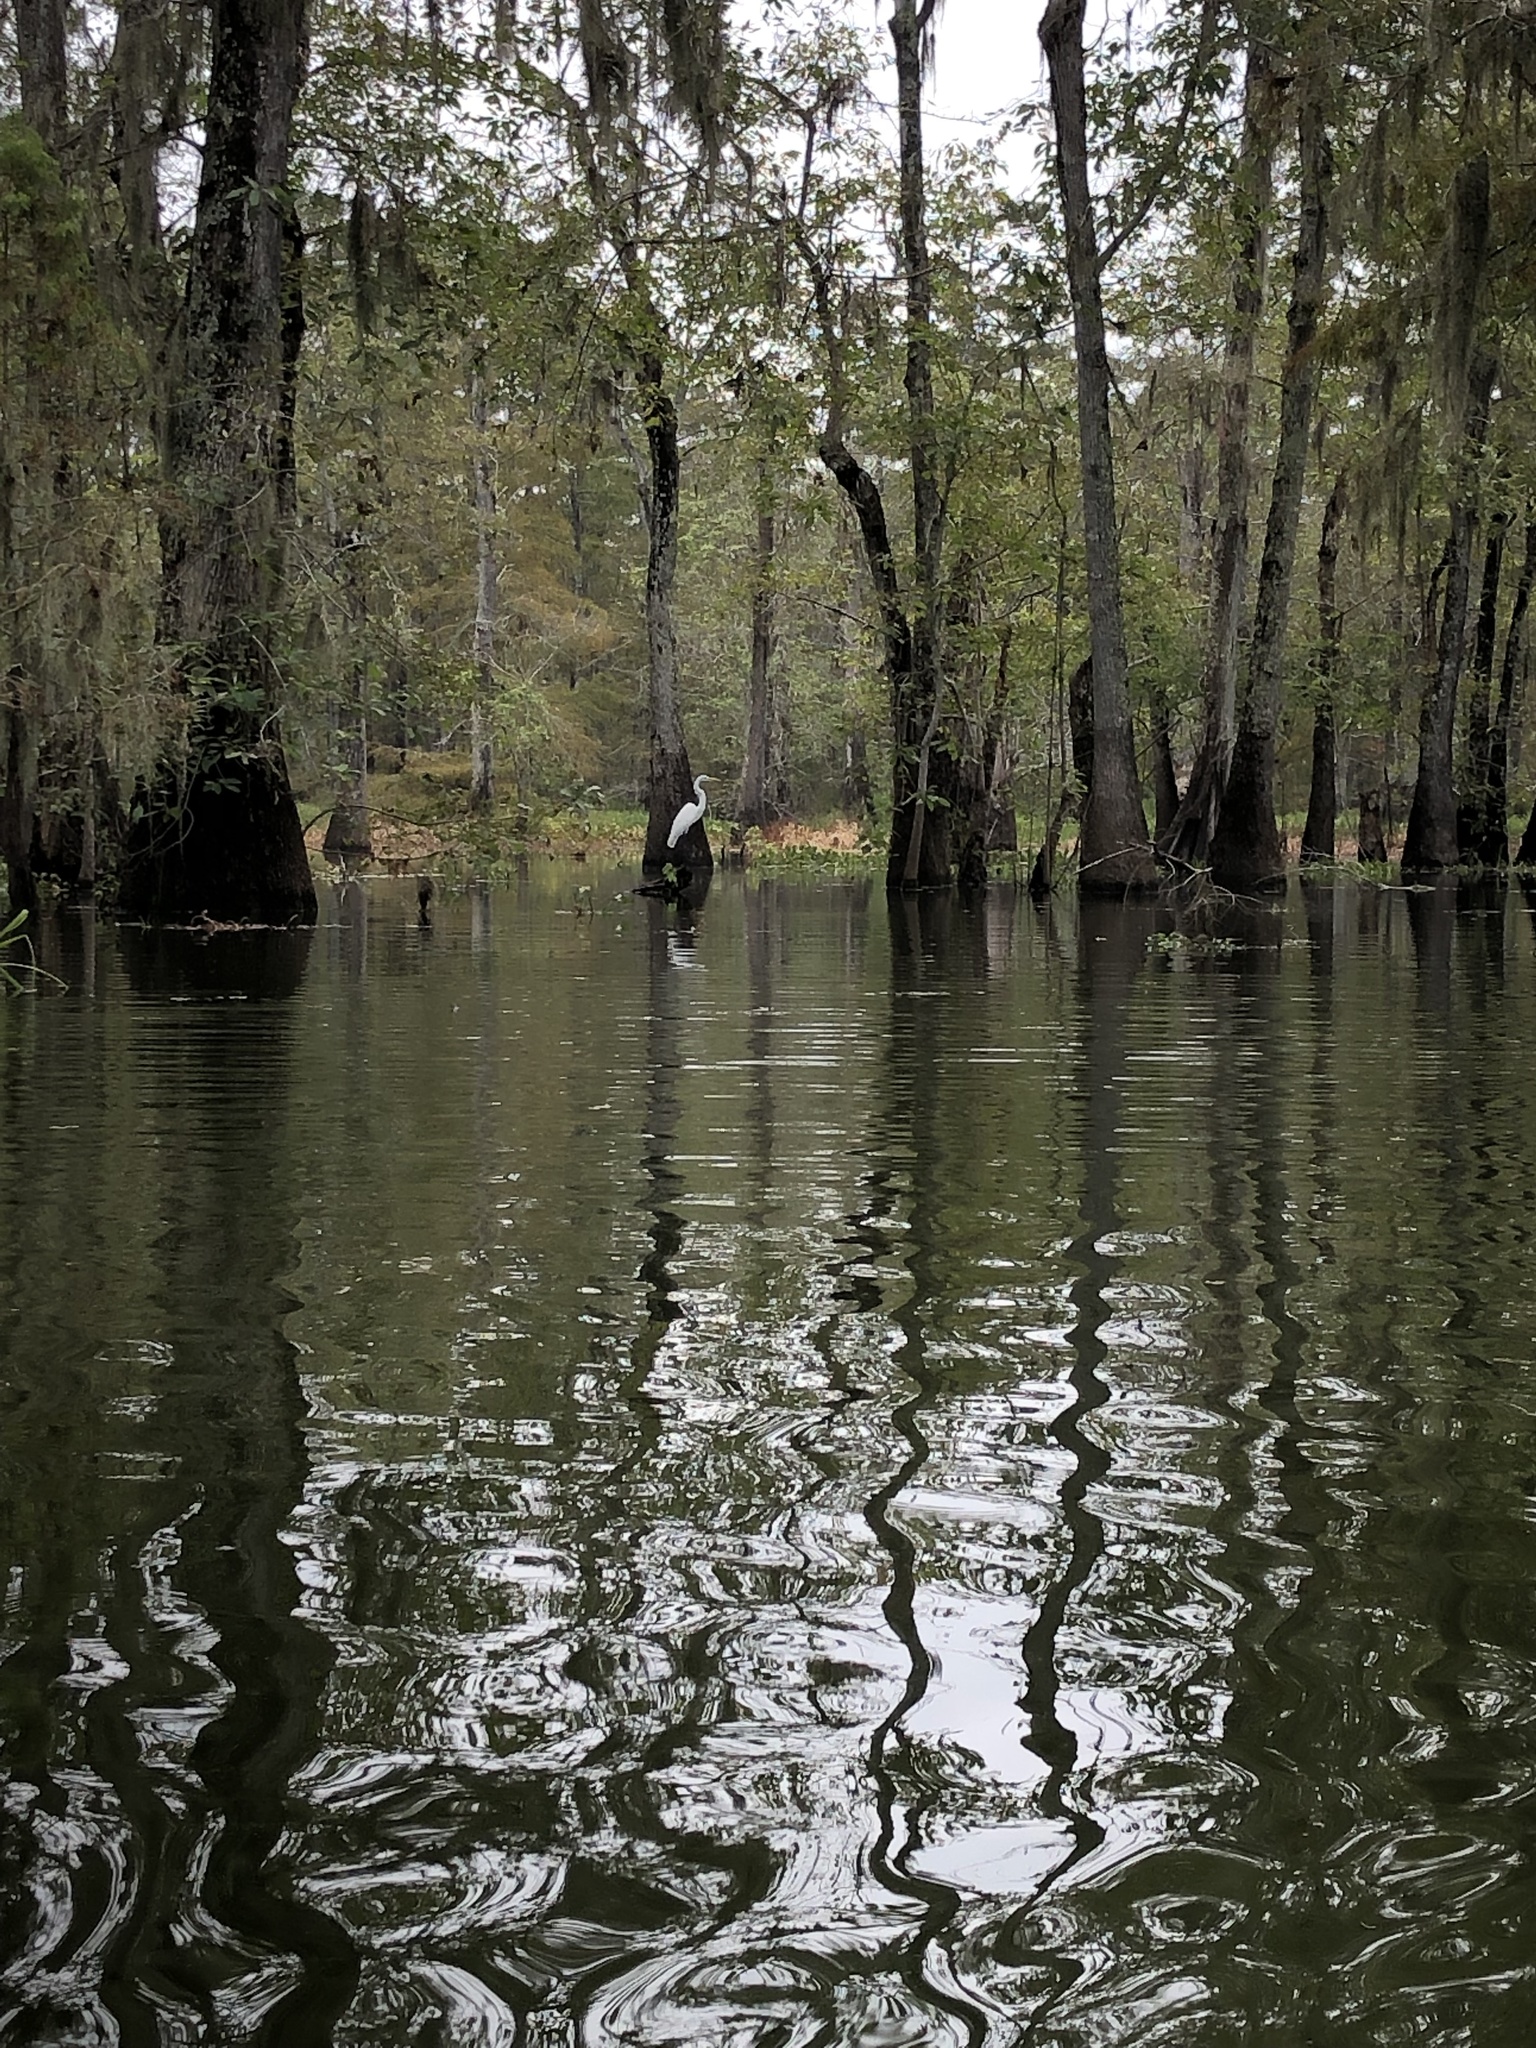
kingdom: Animalia
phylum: Chordata
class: Aves
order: Pelecaniformes
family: Ardeidae
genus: Ardea
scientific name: Ardea alba
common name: Great egret
